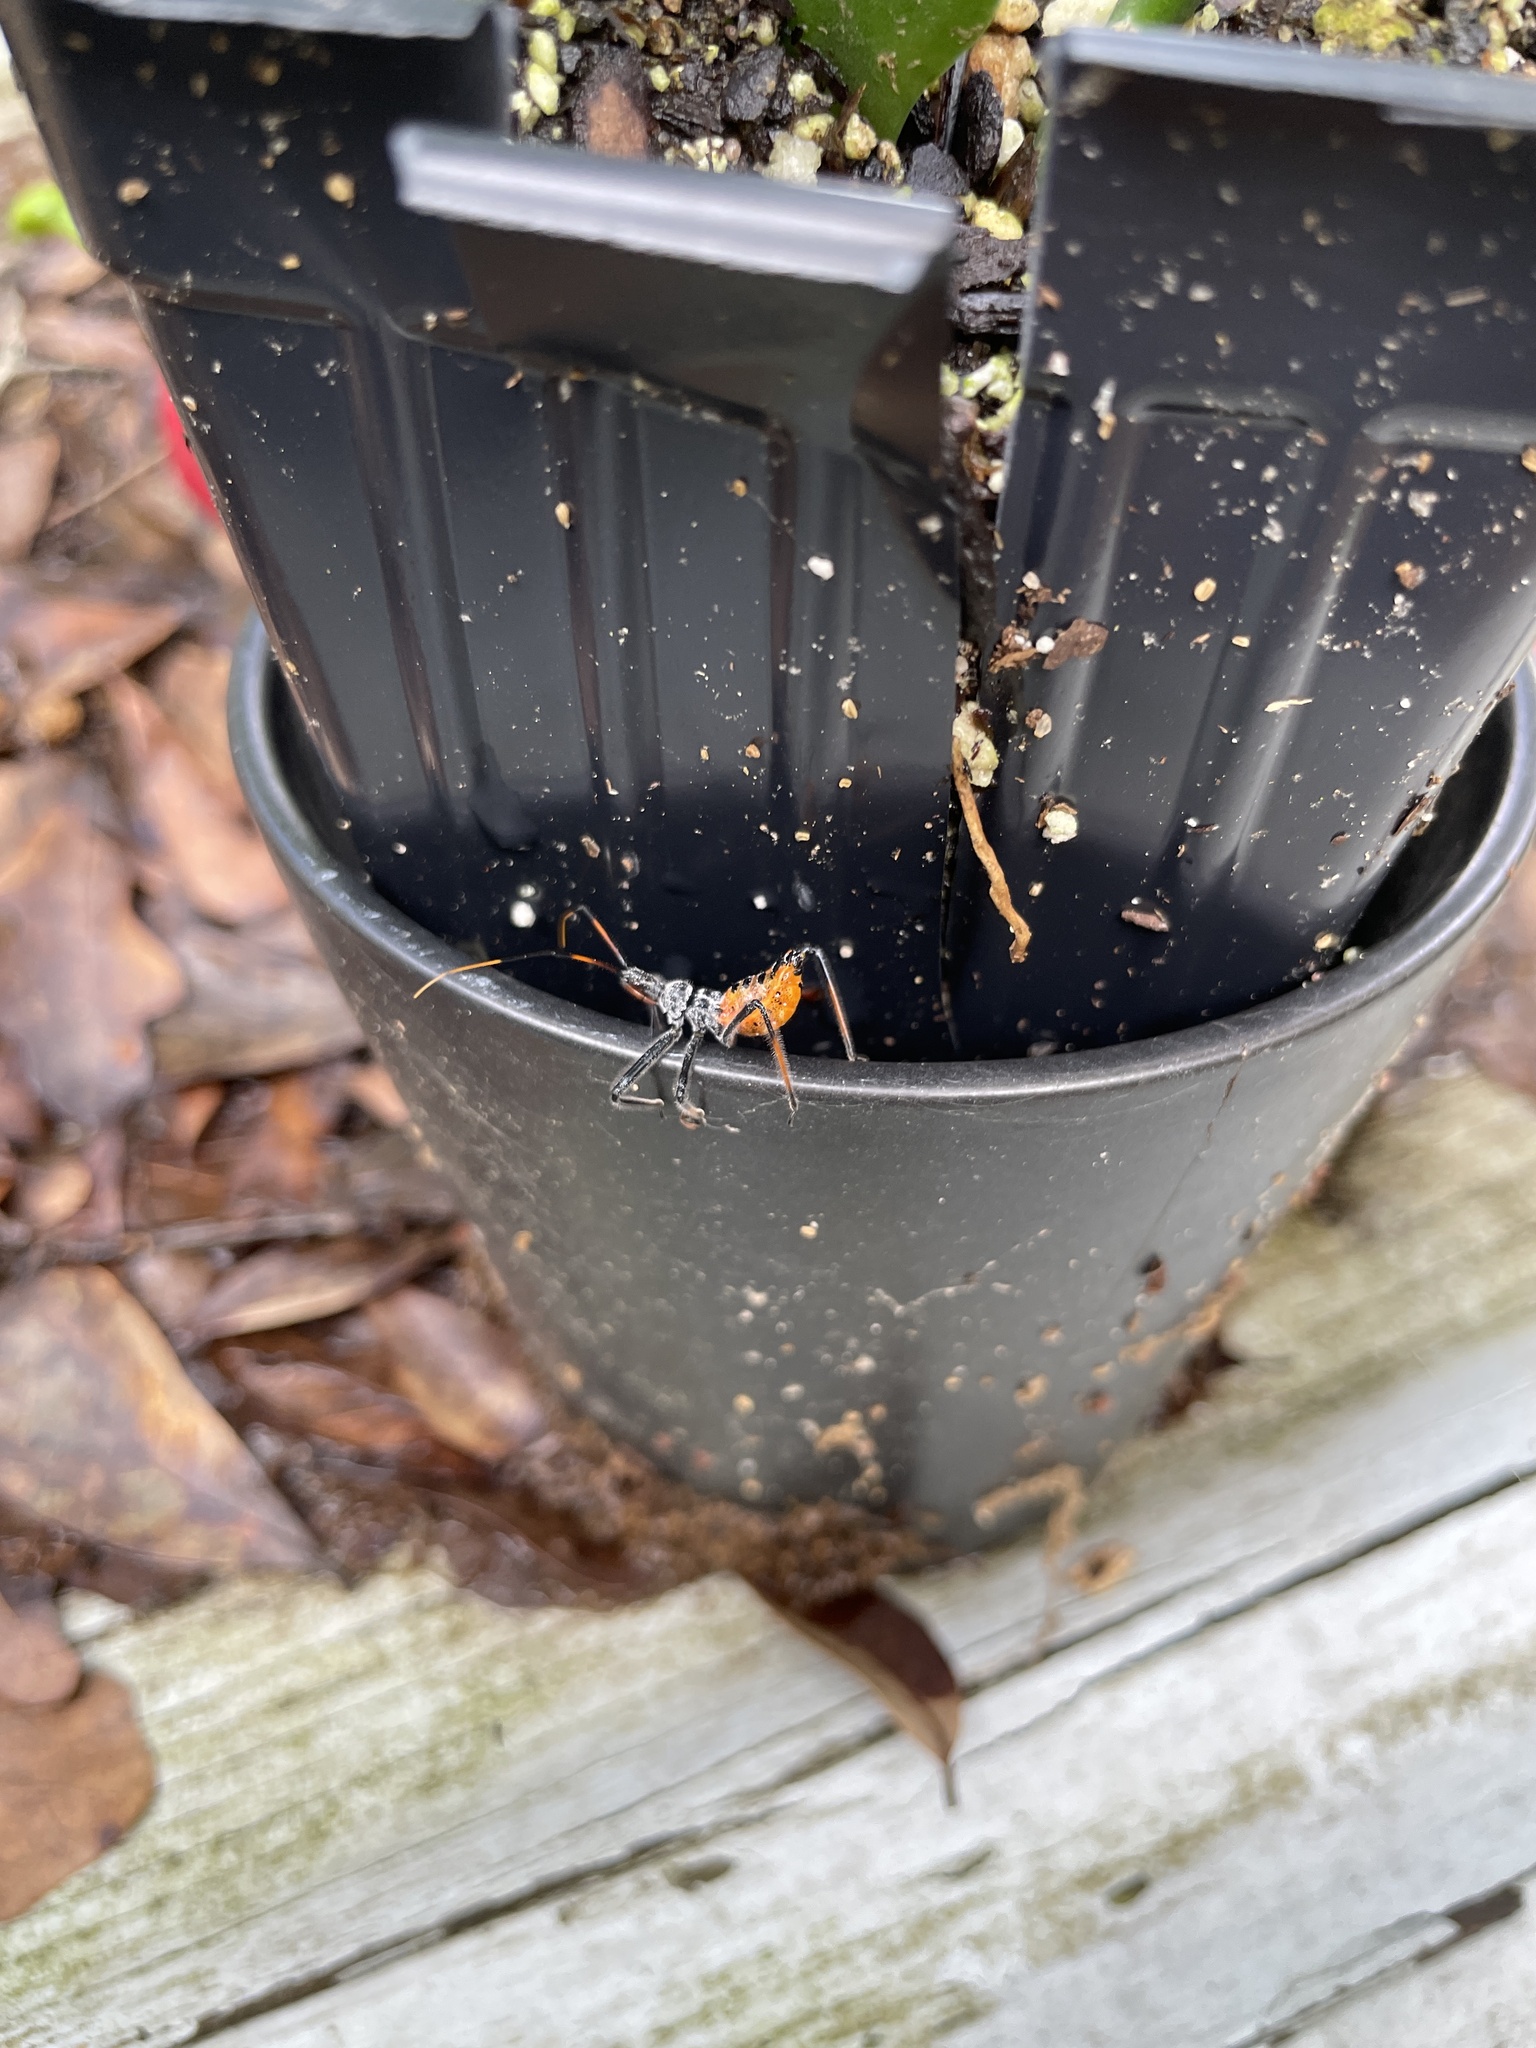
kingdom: Animalia
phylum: Arthropoda
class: Insecta
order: Hemiptera
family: Reduviidae
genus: Arilus
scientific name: Arilus cristatus
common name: North american wheel bug
